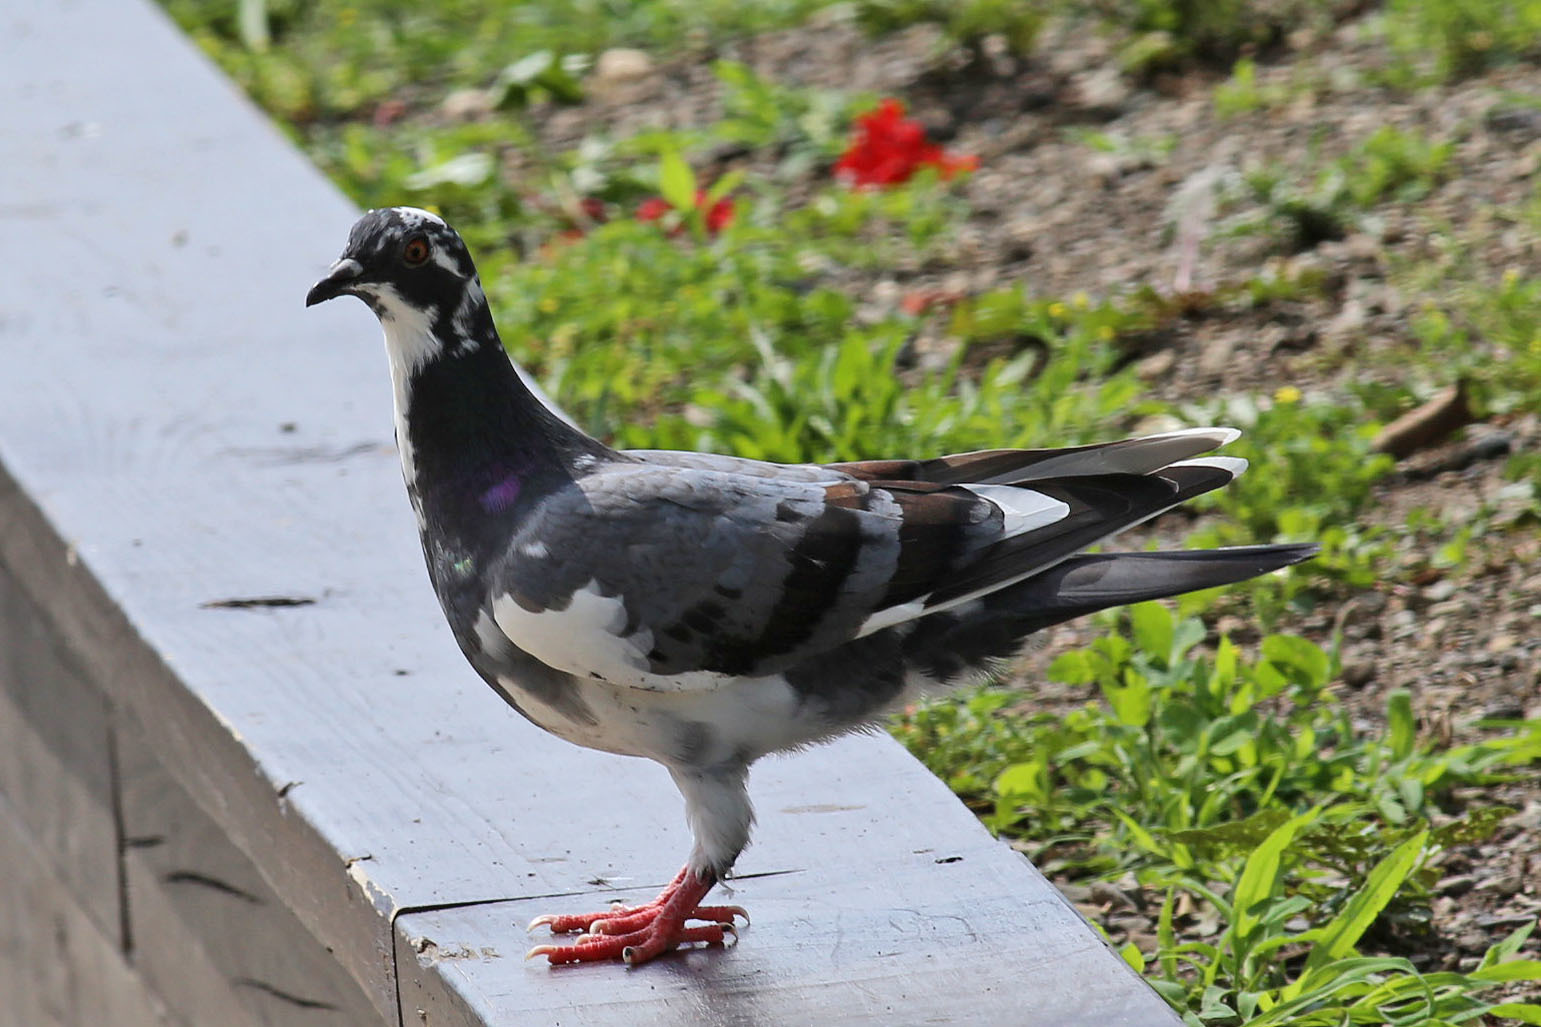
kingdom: Animalia
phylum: Chordata
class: Aves
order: Columbiformes
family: Columbidae
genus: Columba
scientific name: Columba livia
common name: Rock pigeon
